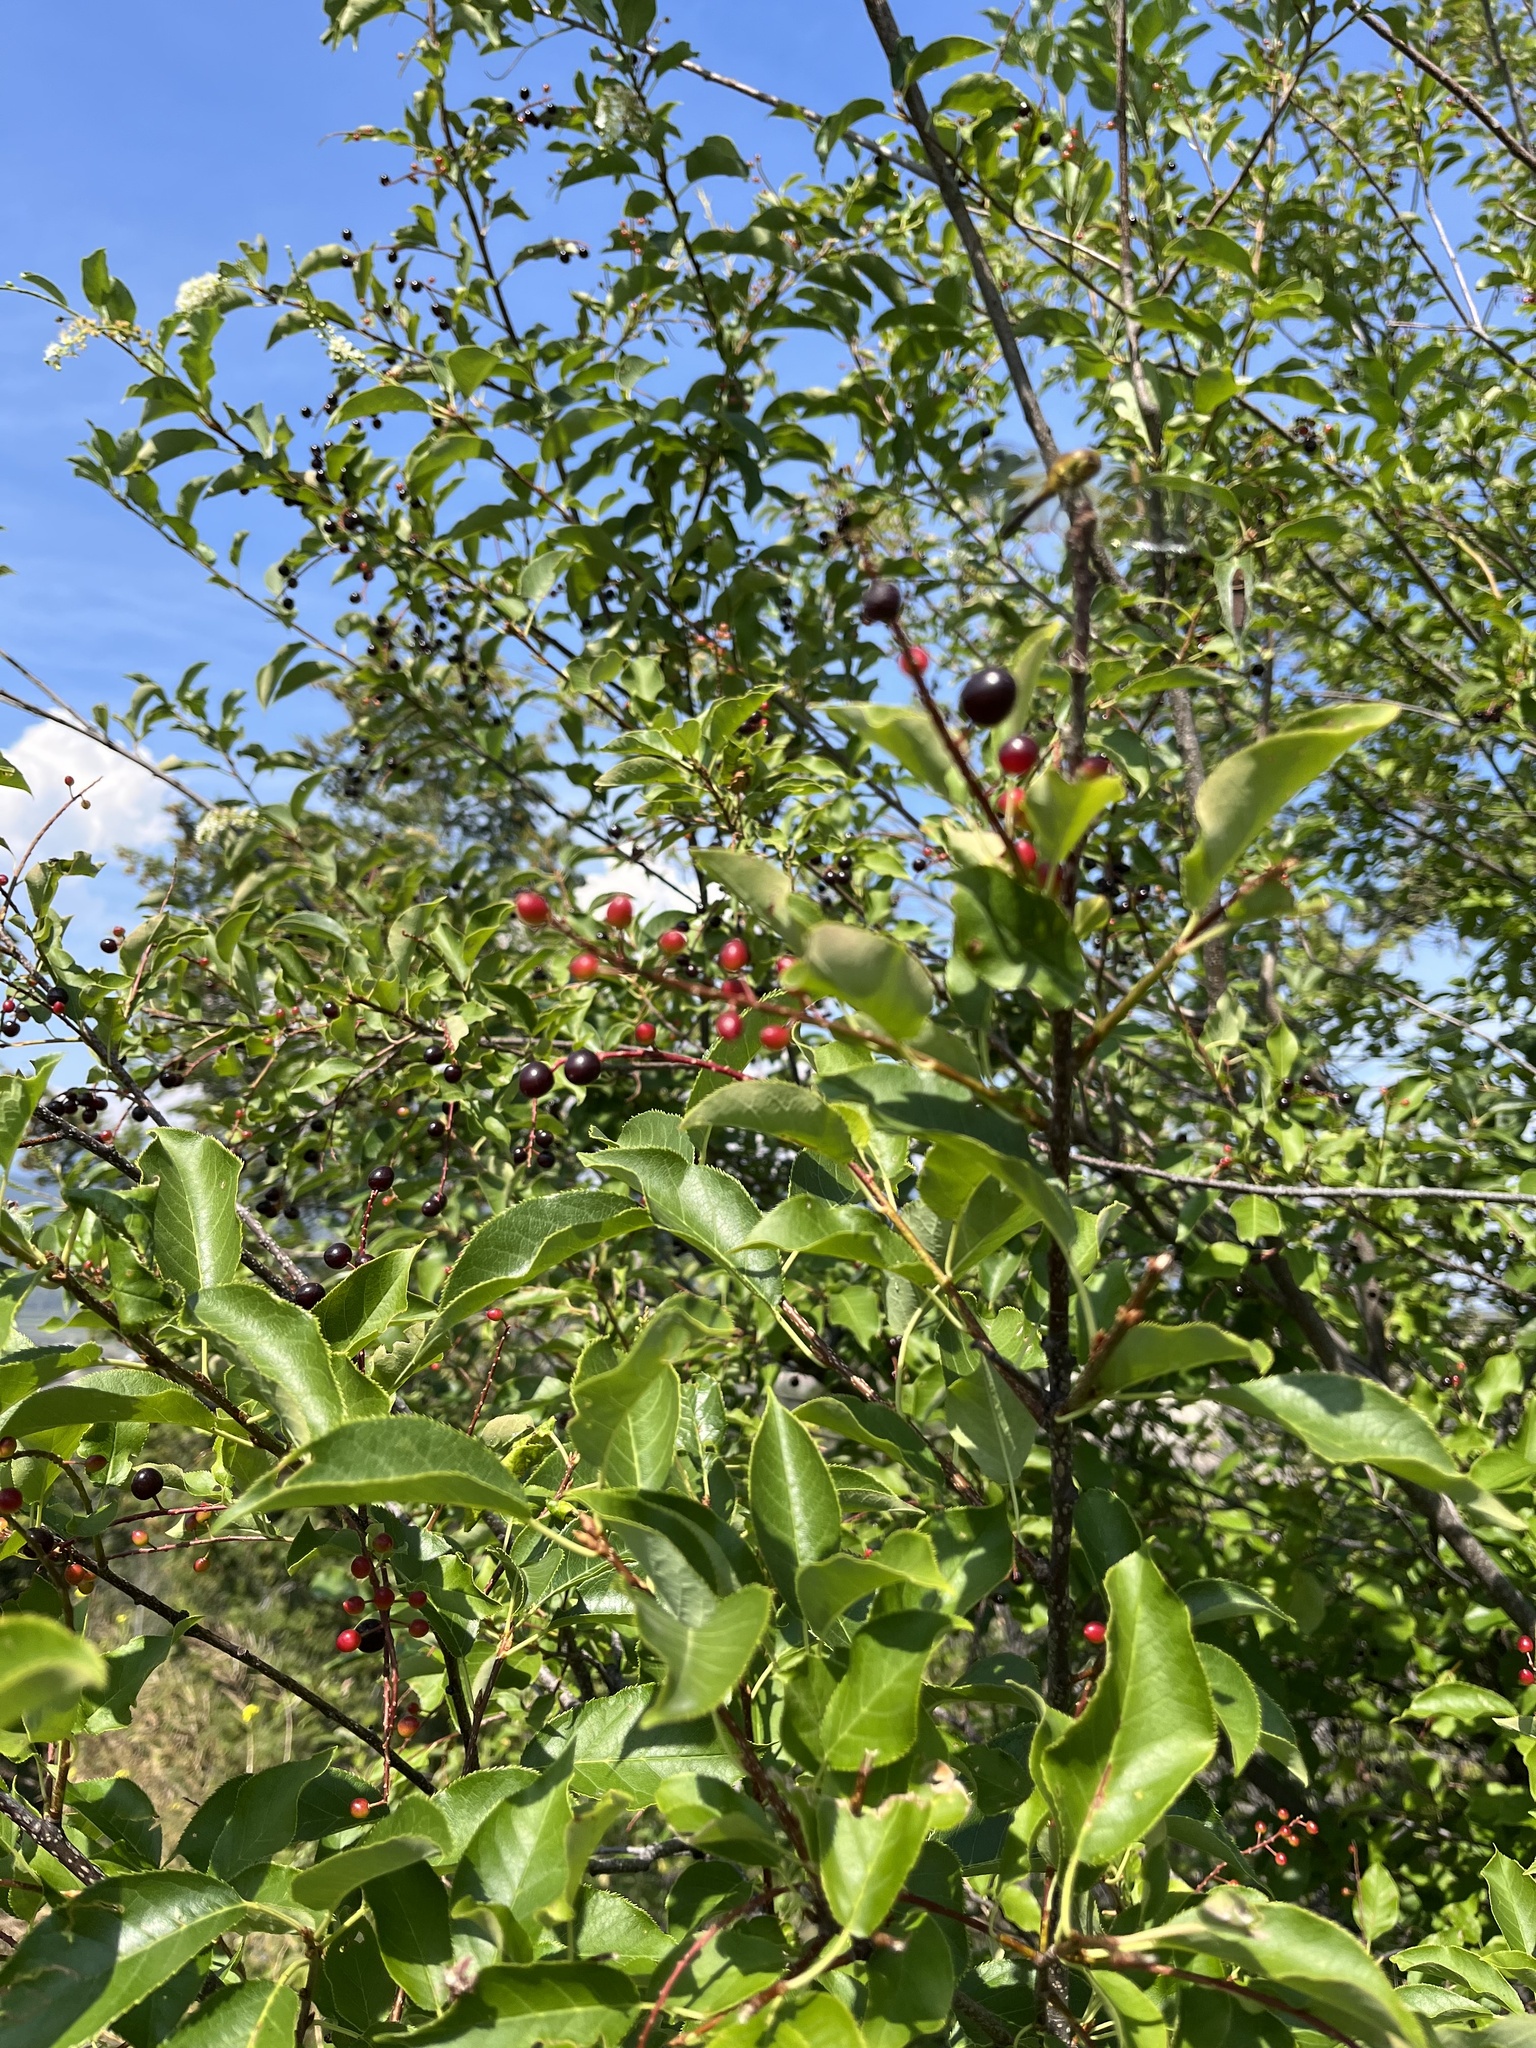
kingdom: Plantae
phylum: Tracheophyta
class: Magnoliopsida
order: Rosales
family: Rosaceae
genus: Prunus
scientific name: Prunus virginiana
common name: Chokecherry
